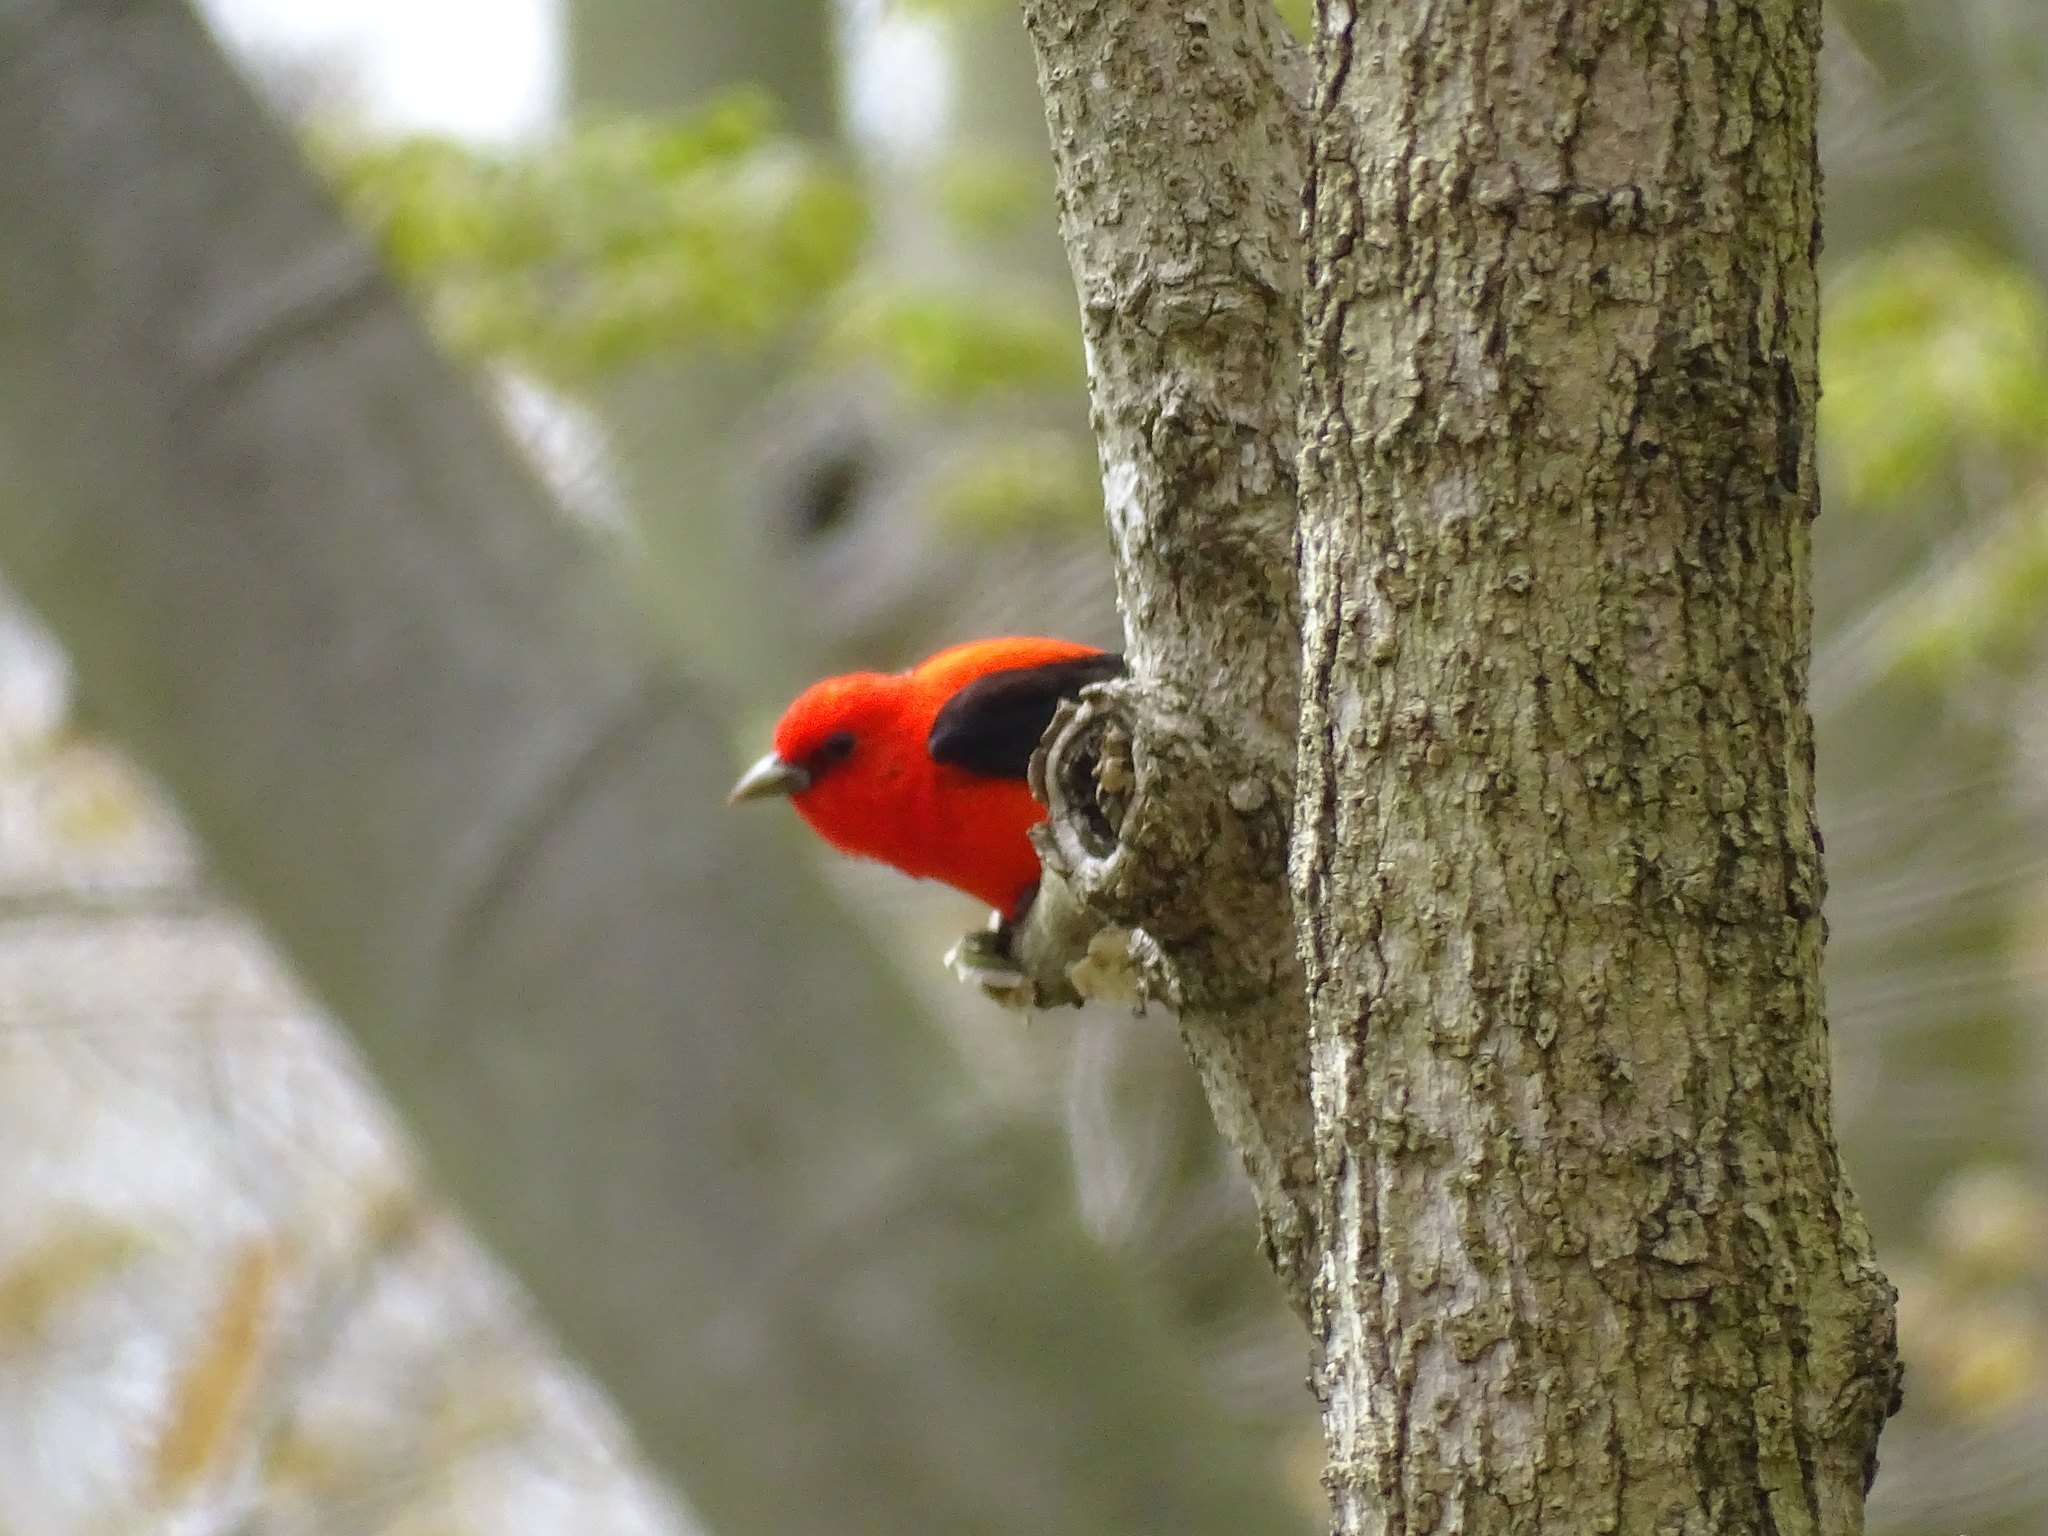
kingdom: Animalia
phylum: Chordata
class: Aves
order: Passeriformes
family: Cardinalidae
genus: Piranga
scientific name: Piranga olivacea
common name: Scarlet tanager
